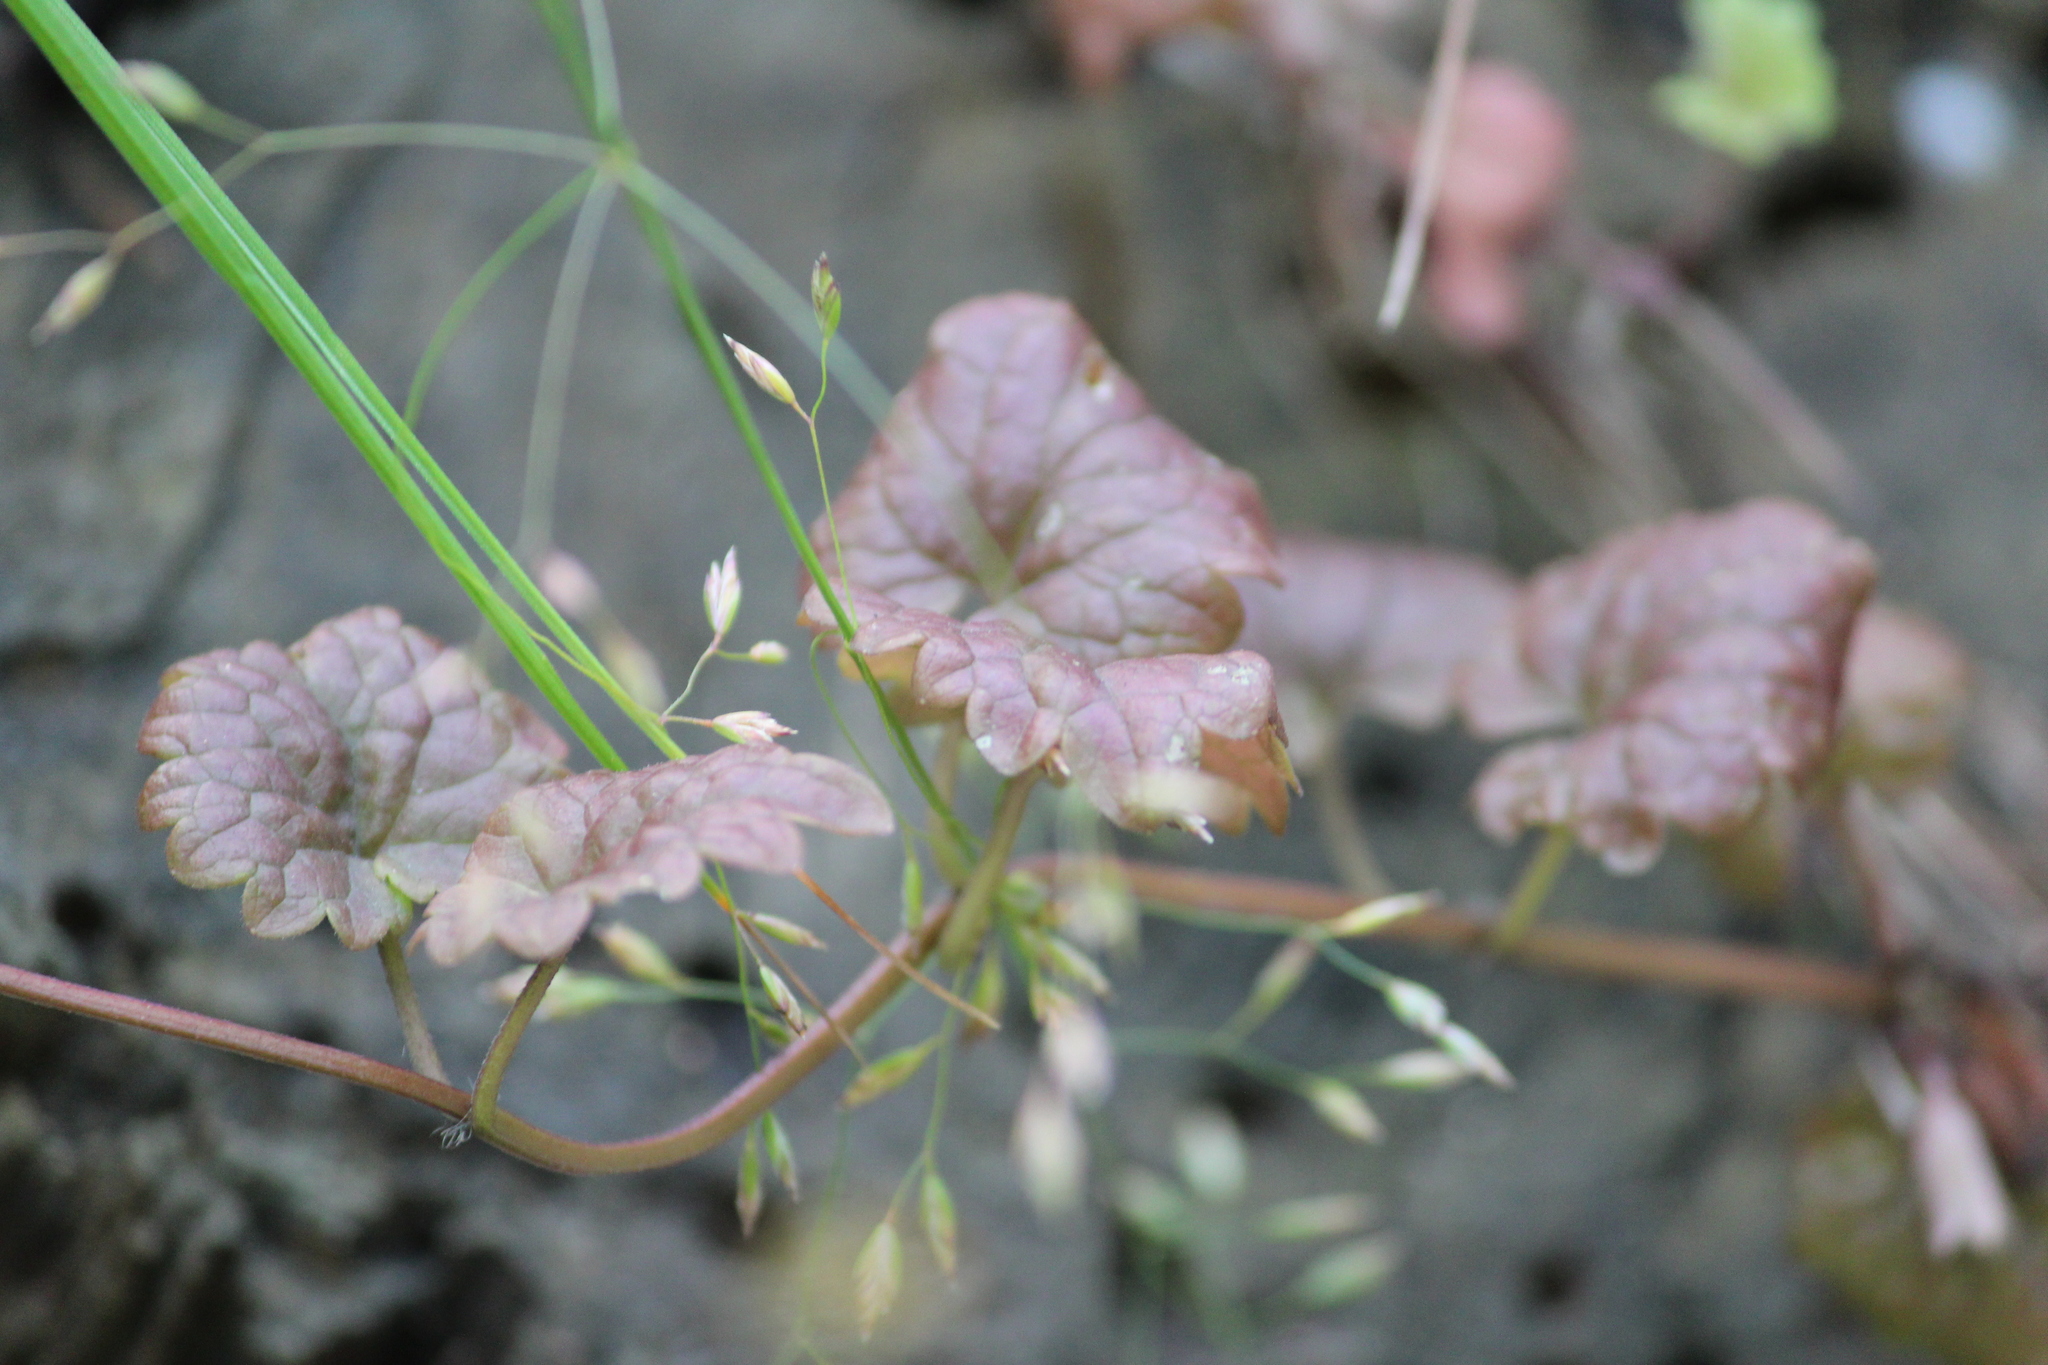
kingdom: Plantae
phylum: Tracheophyta
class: Magnoliopsida
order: Lamiales
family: Lamiaceae
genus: Glechoma
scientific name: Glechoma hederacea
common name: Ground ivy
